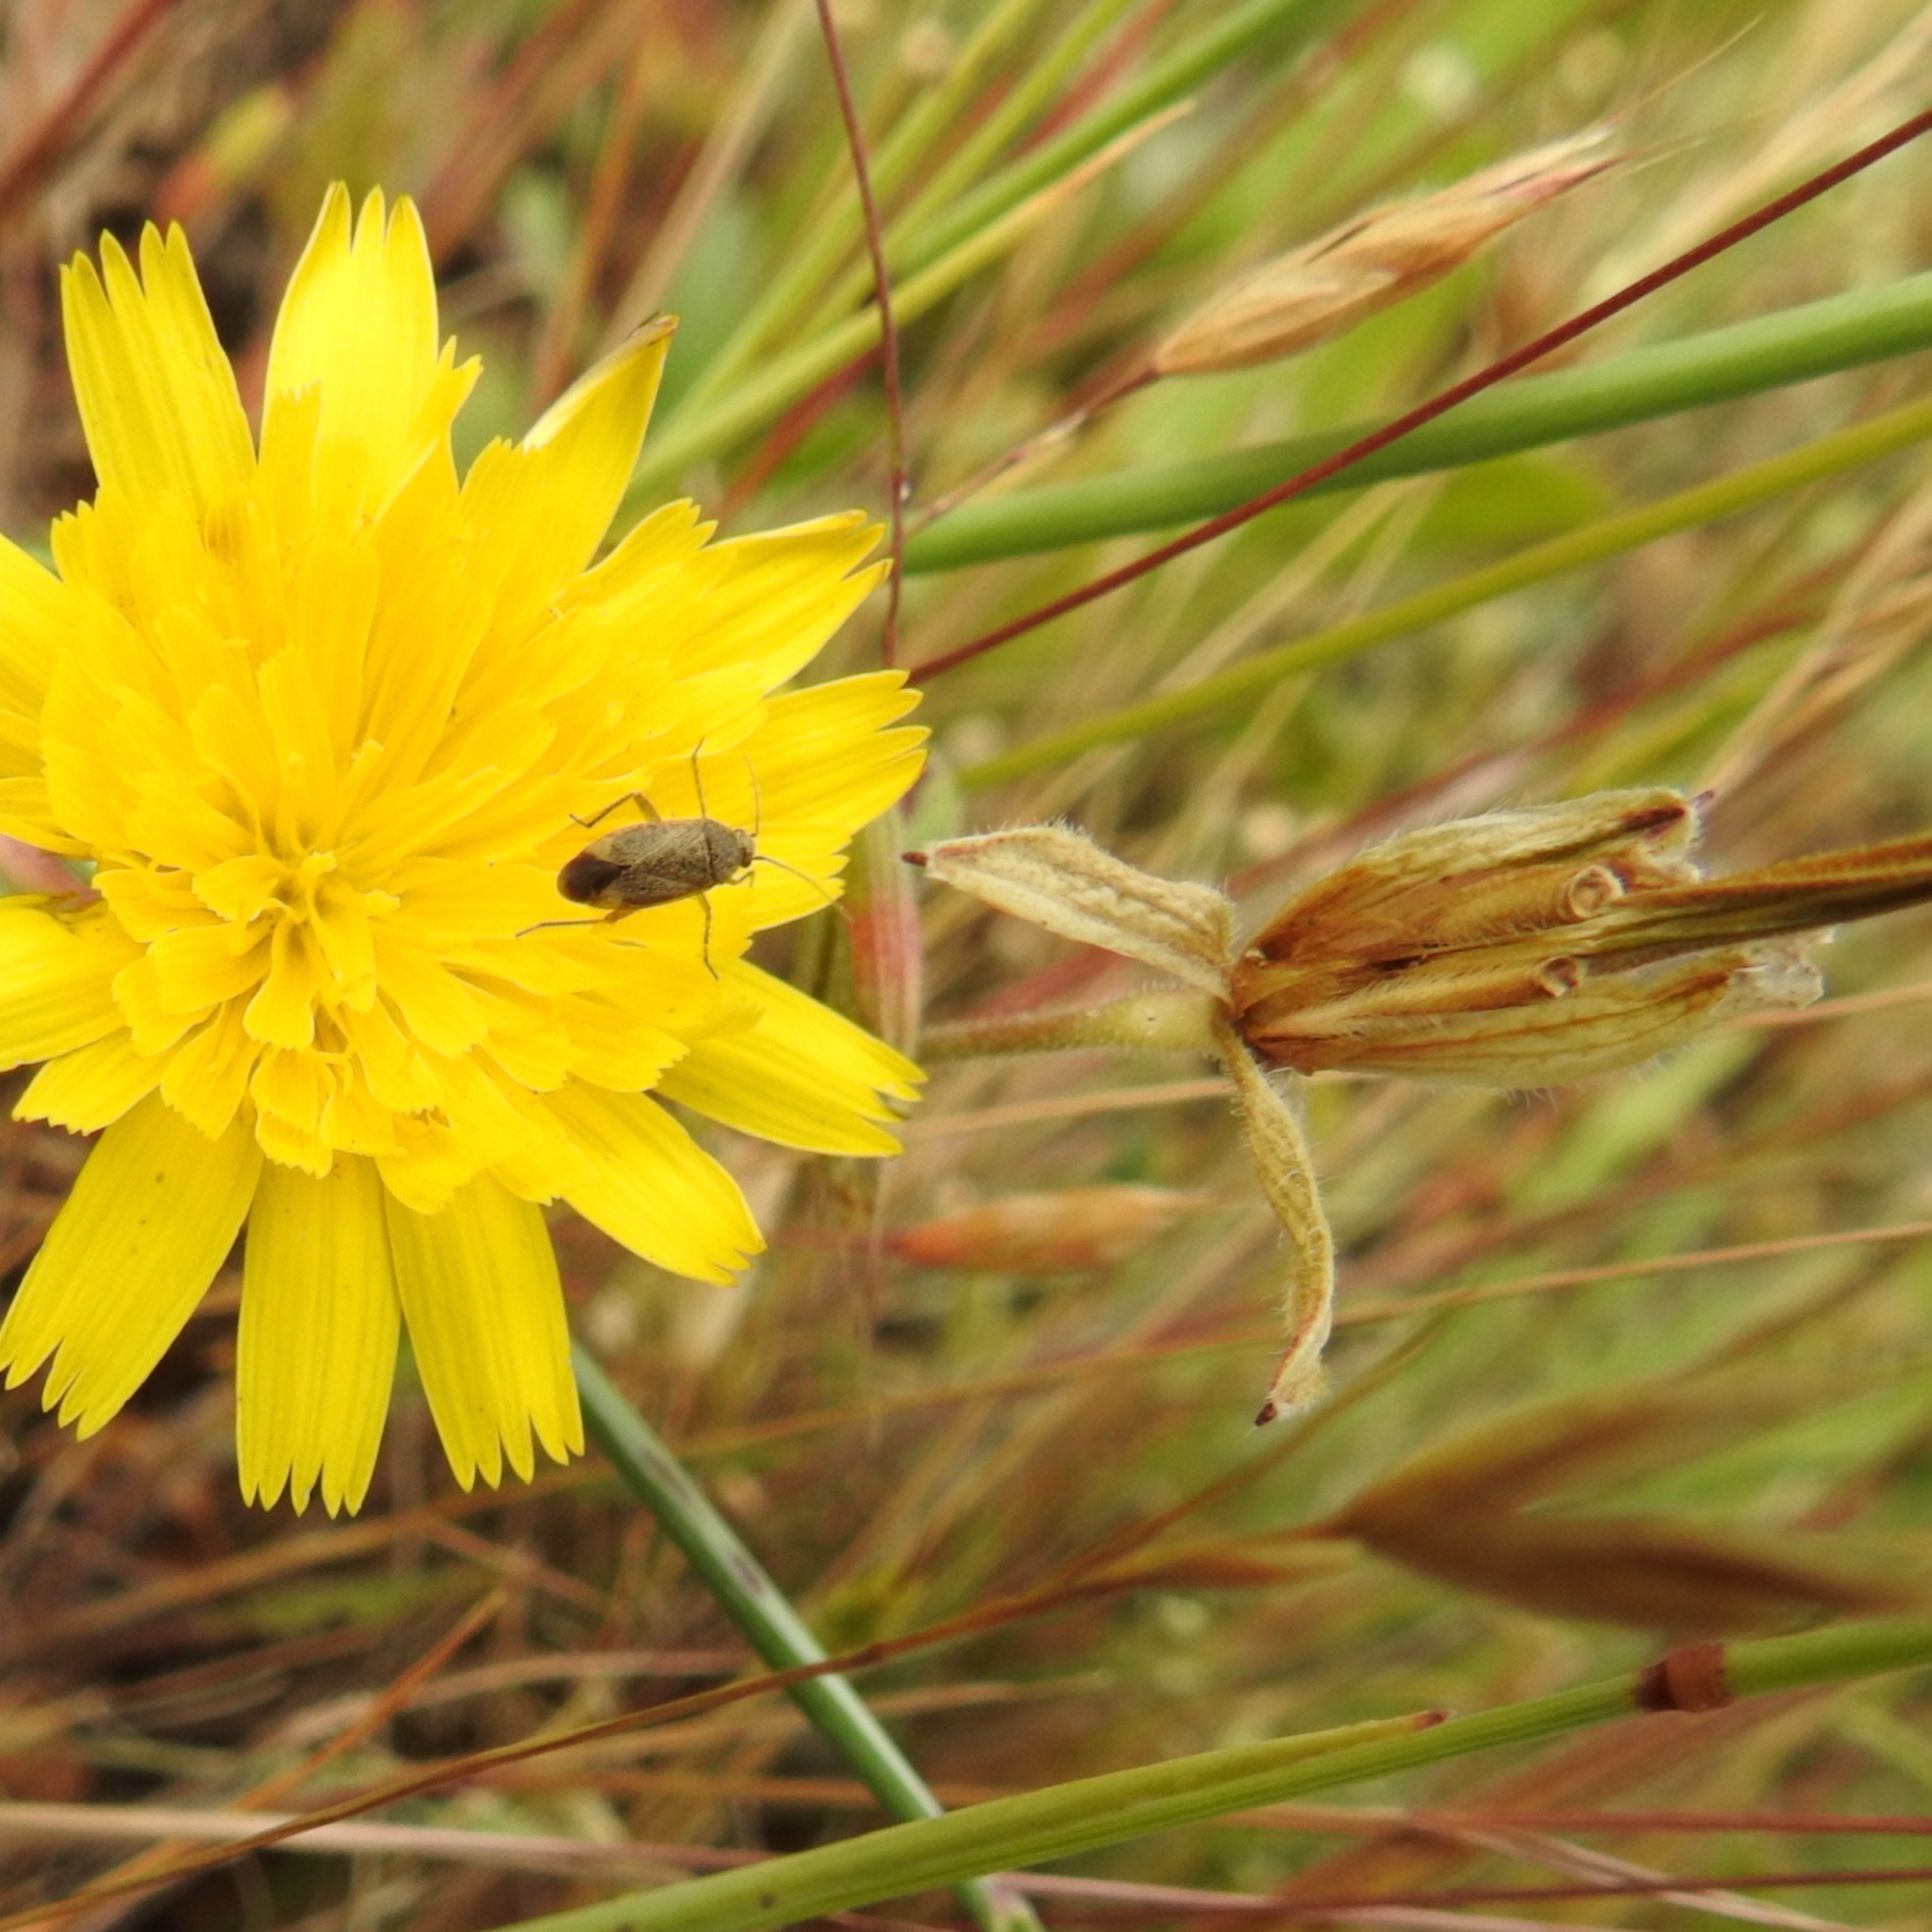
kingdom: Animalia
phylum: Arthropoda
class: Insecta
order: Diptera
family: Syrphidae
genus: Sphaerophoria
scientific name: Sphaerophoria sulphuripes
